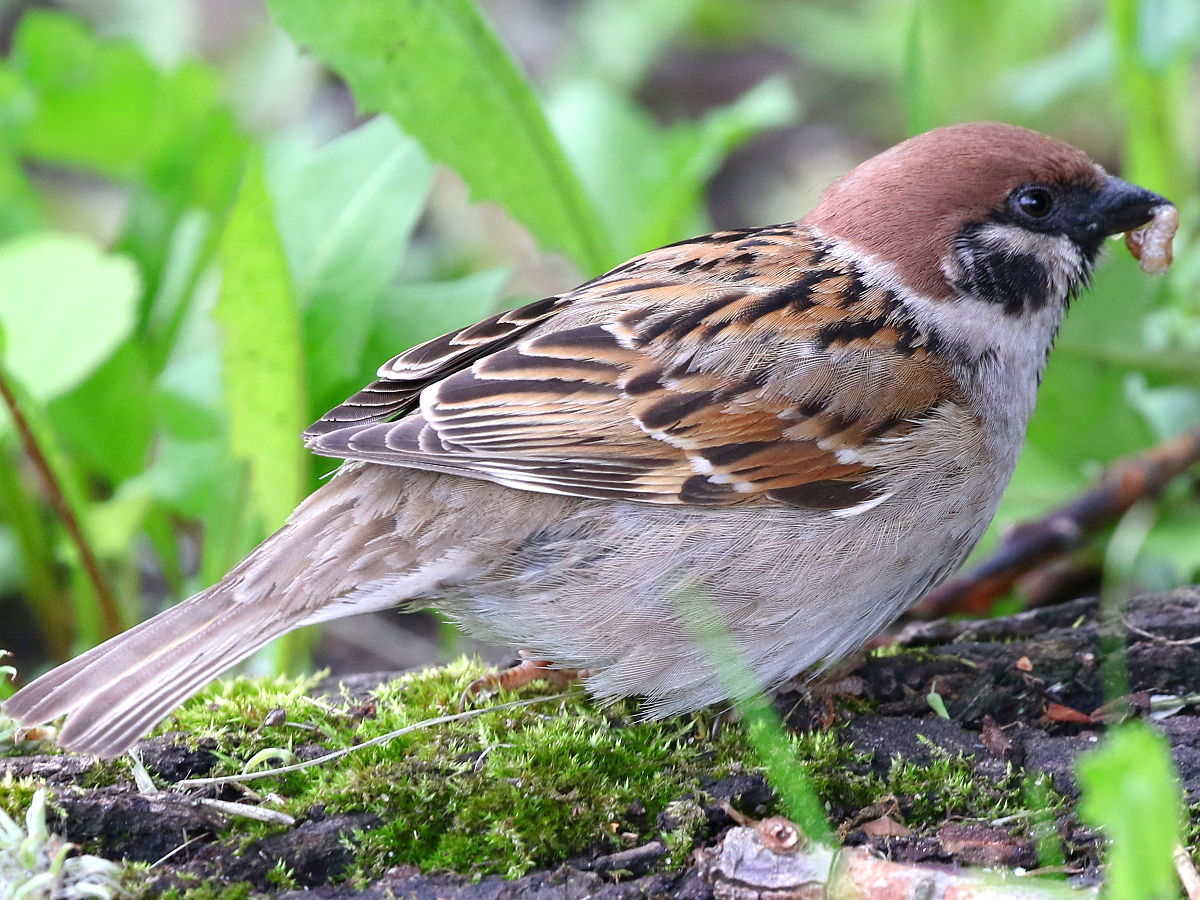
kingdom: Animalia
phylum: Chordata
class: Aves
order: Passeriformes
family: Passeridae
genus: Passer
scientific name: Passer montanus
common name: Eurasian tree sparrow
